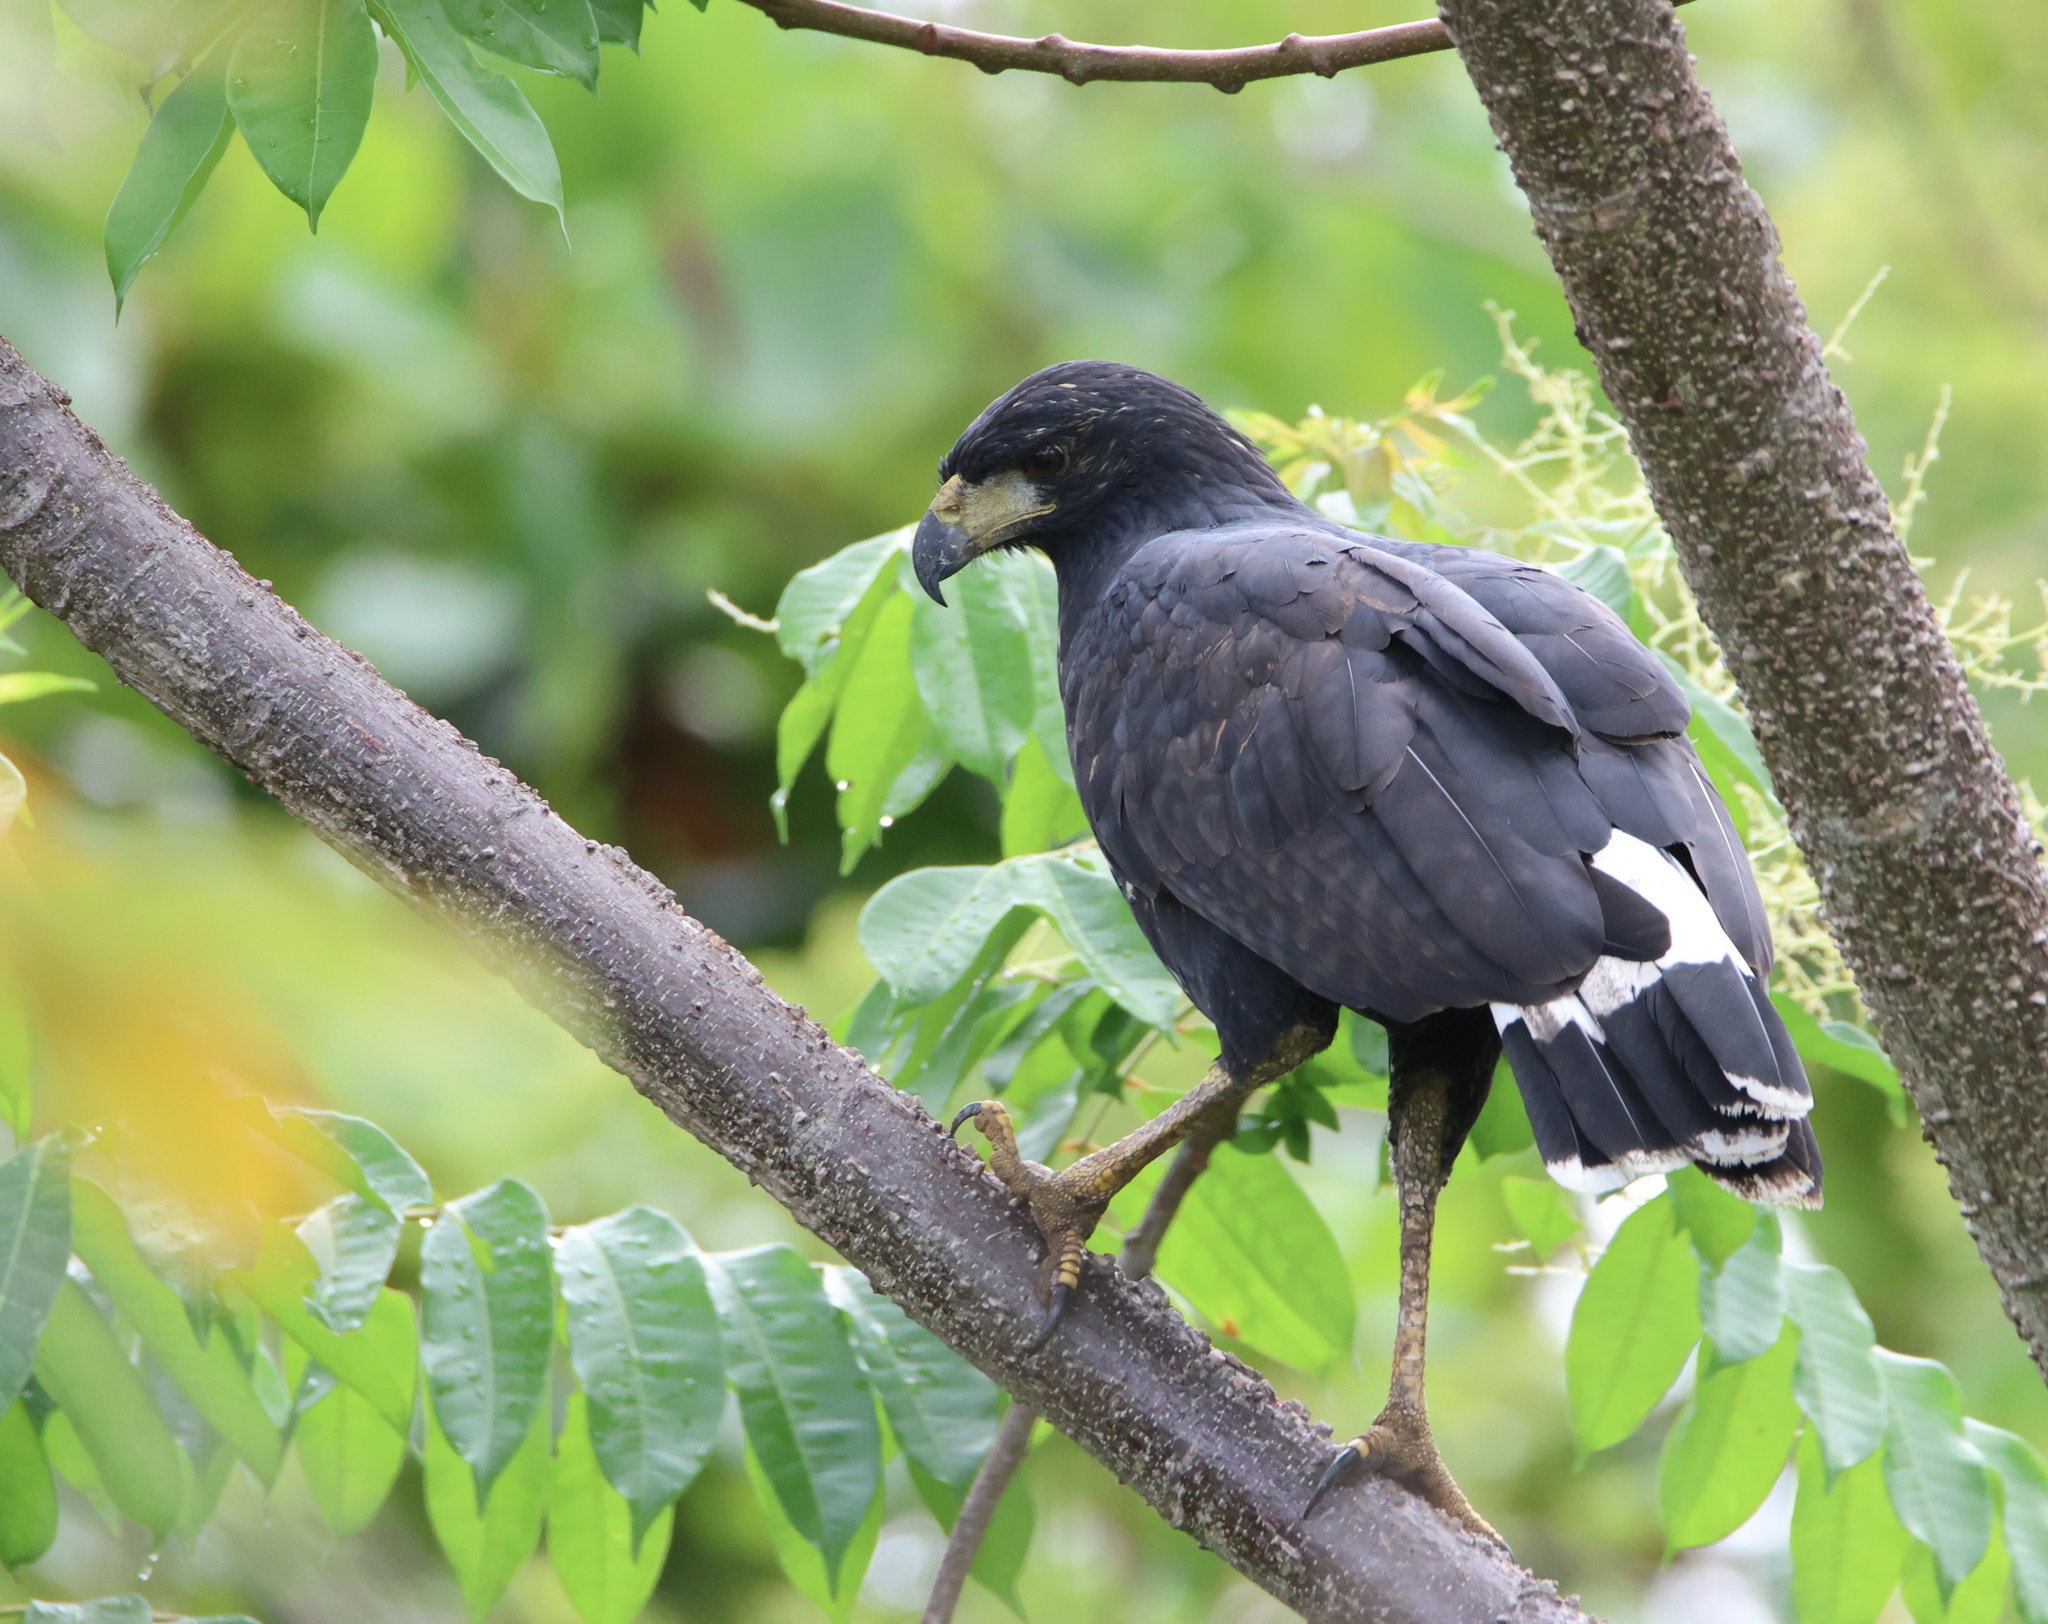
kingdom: Animalia
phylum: Chordata
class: Aves
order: Accipitriformes
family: Accipitridae
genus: Buteogallus
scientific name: Buteogallus urubitinga
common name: Great black hawk
